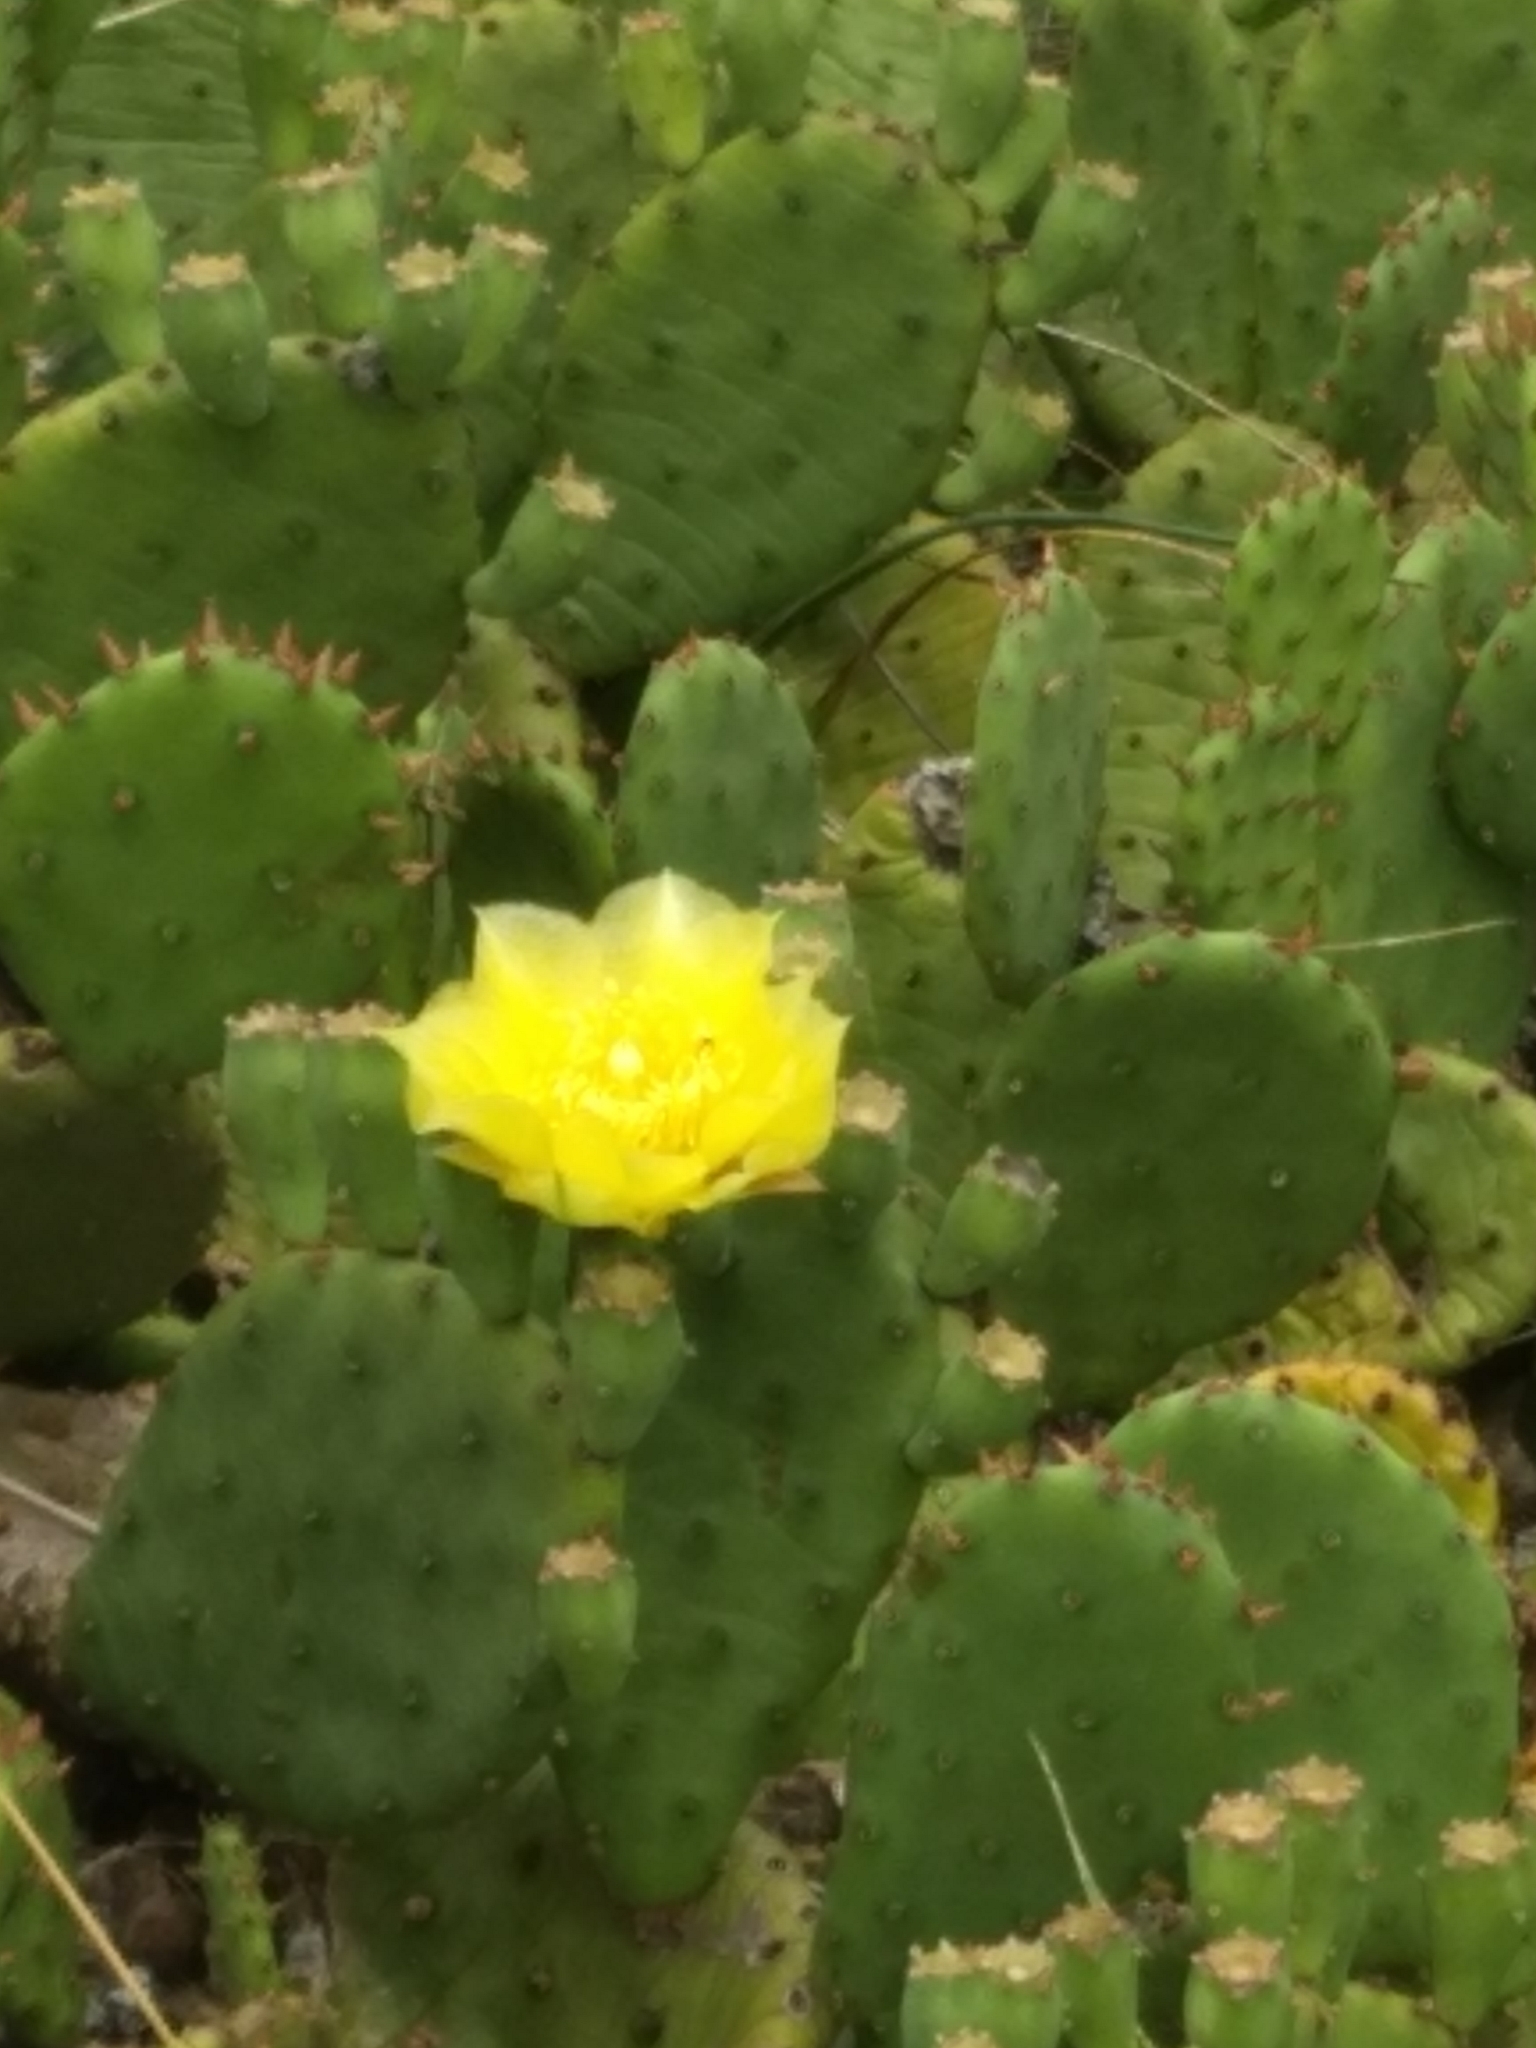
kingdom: Plantae
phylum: Tracheophyta
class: Magnoliopsida
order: Caryophyllales
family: Cactaceae
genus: Opuntia
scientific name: Opuntia humifusa
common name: Eastern prickly-pear
